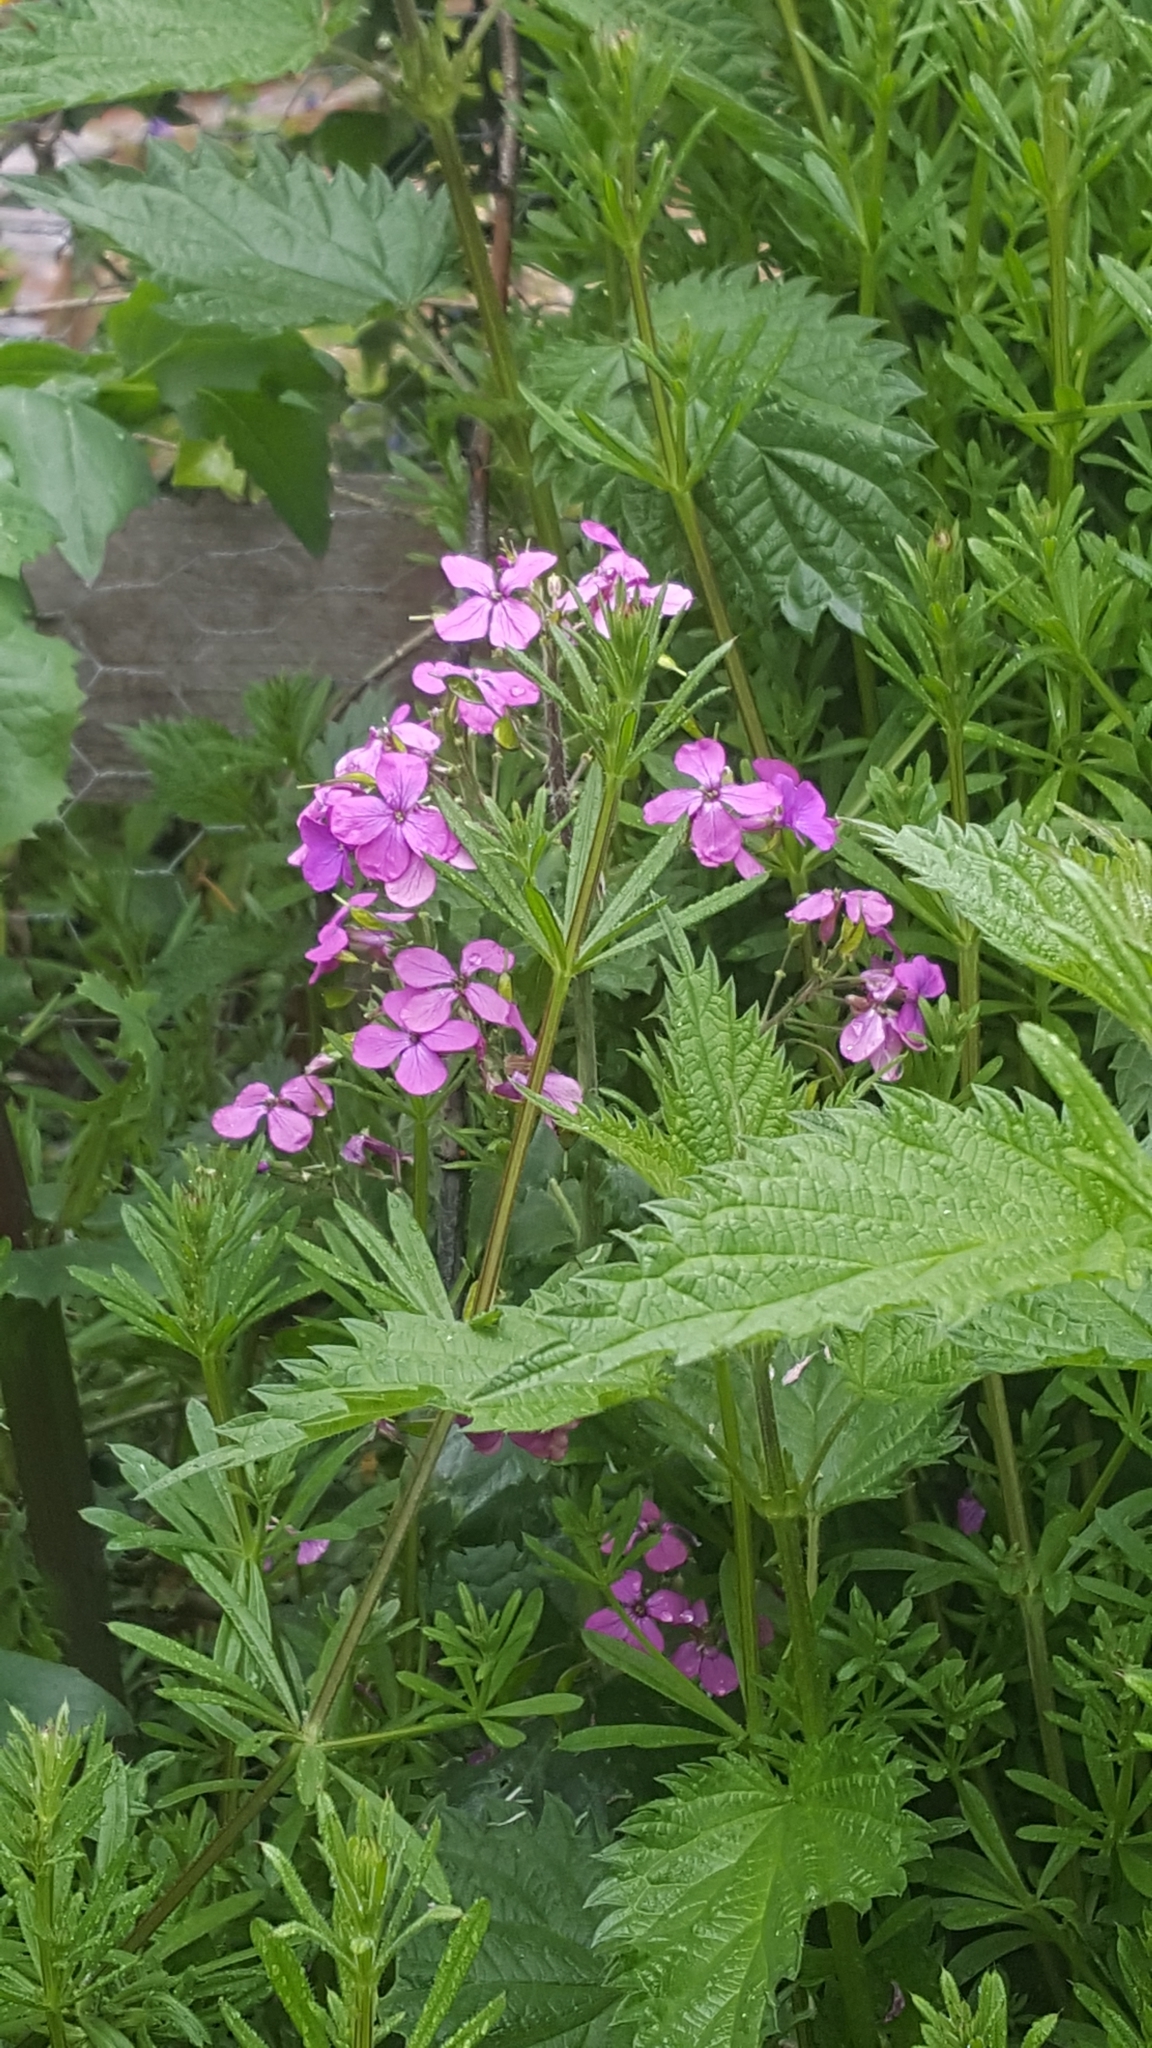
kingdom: Plantae
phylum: Tracheophyta
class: Magnoliopsida
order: Brassicales
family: Brassicaceae
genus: Lunaria
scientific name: Lunaria annua
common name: Honesty
